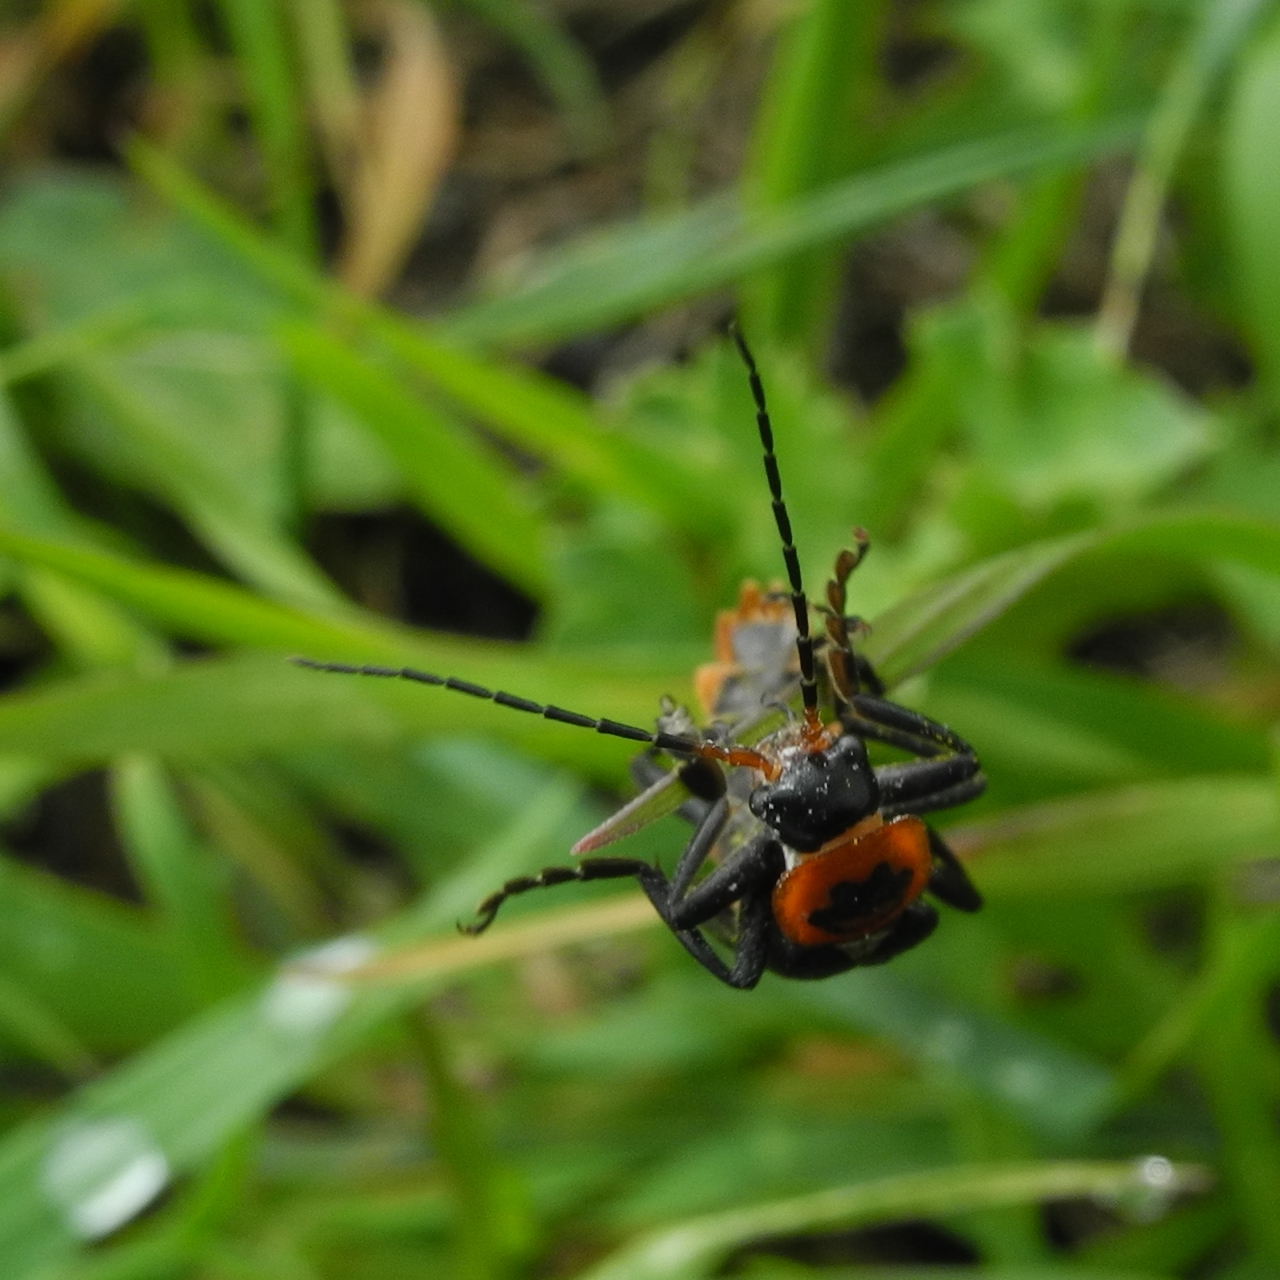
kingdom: Animalia
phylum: Arthropoda
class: Insecta
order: Coleoptera
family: Cantharidae
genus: Cantharis
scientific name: Cantharis marginiventris
